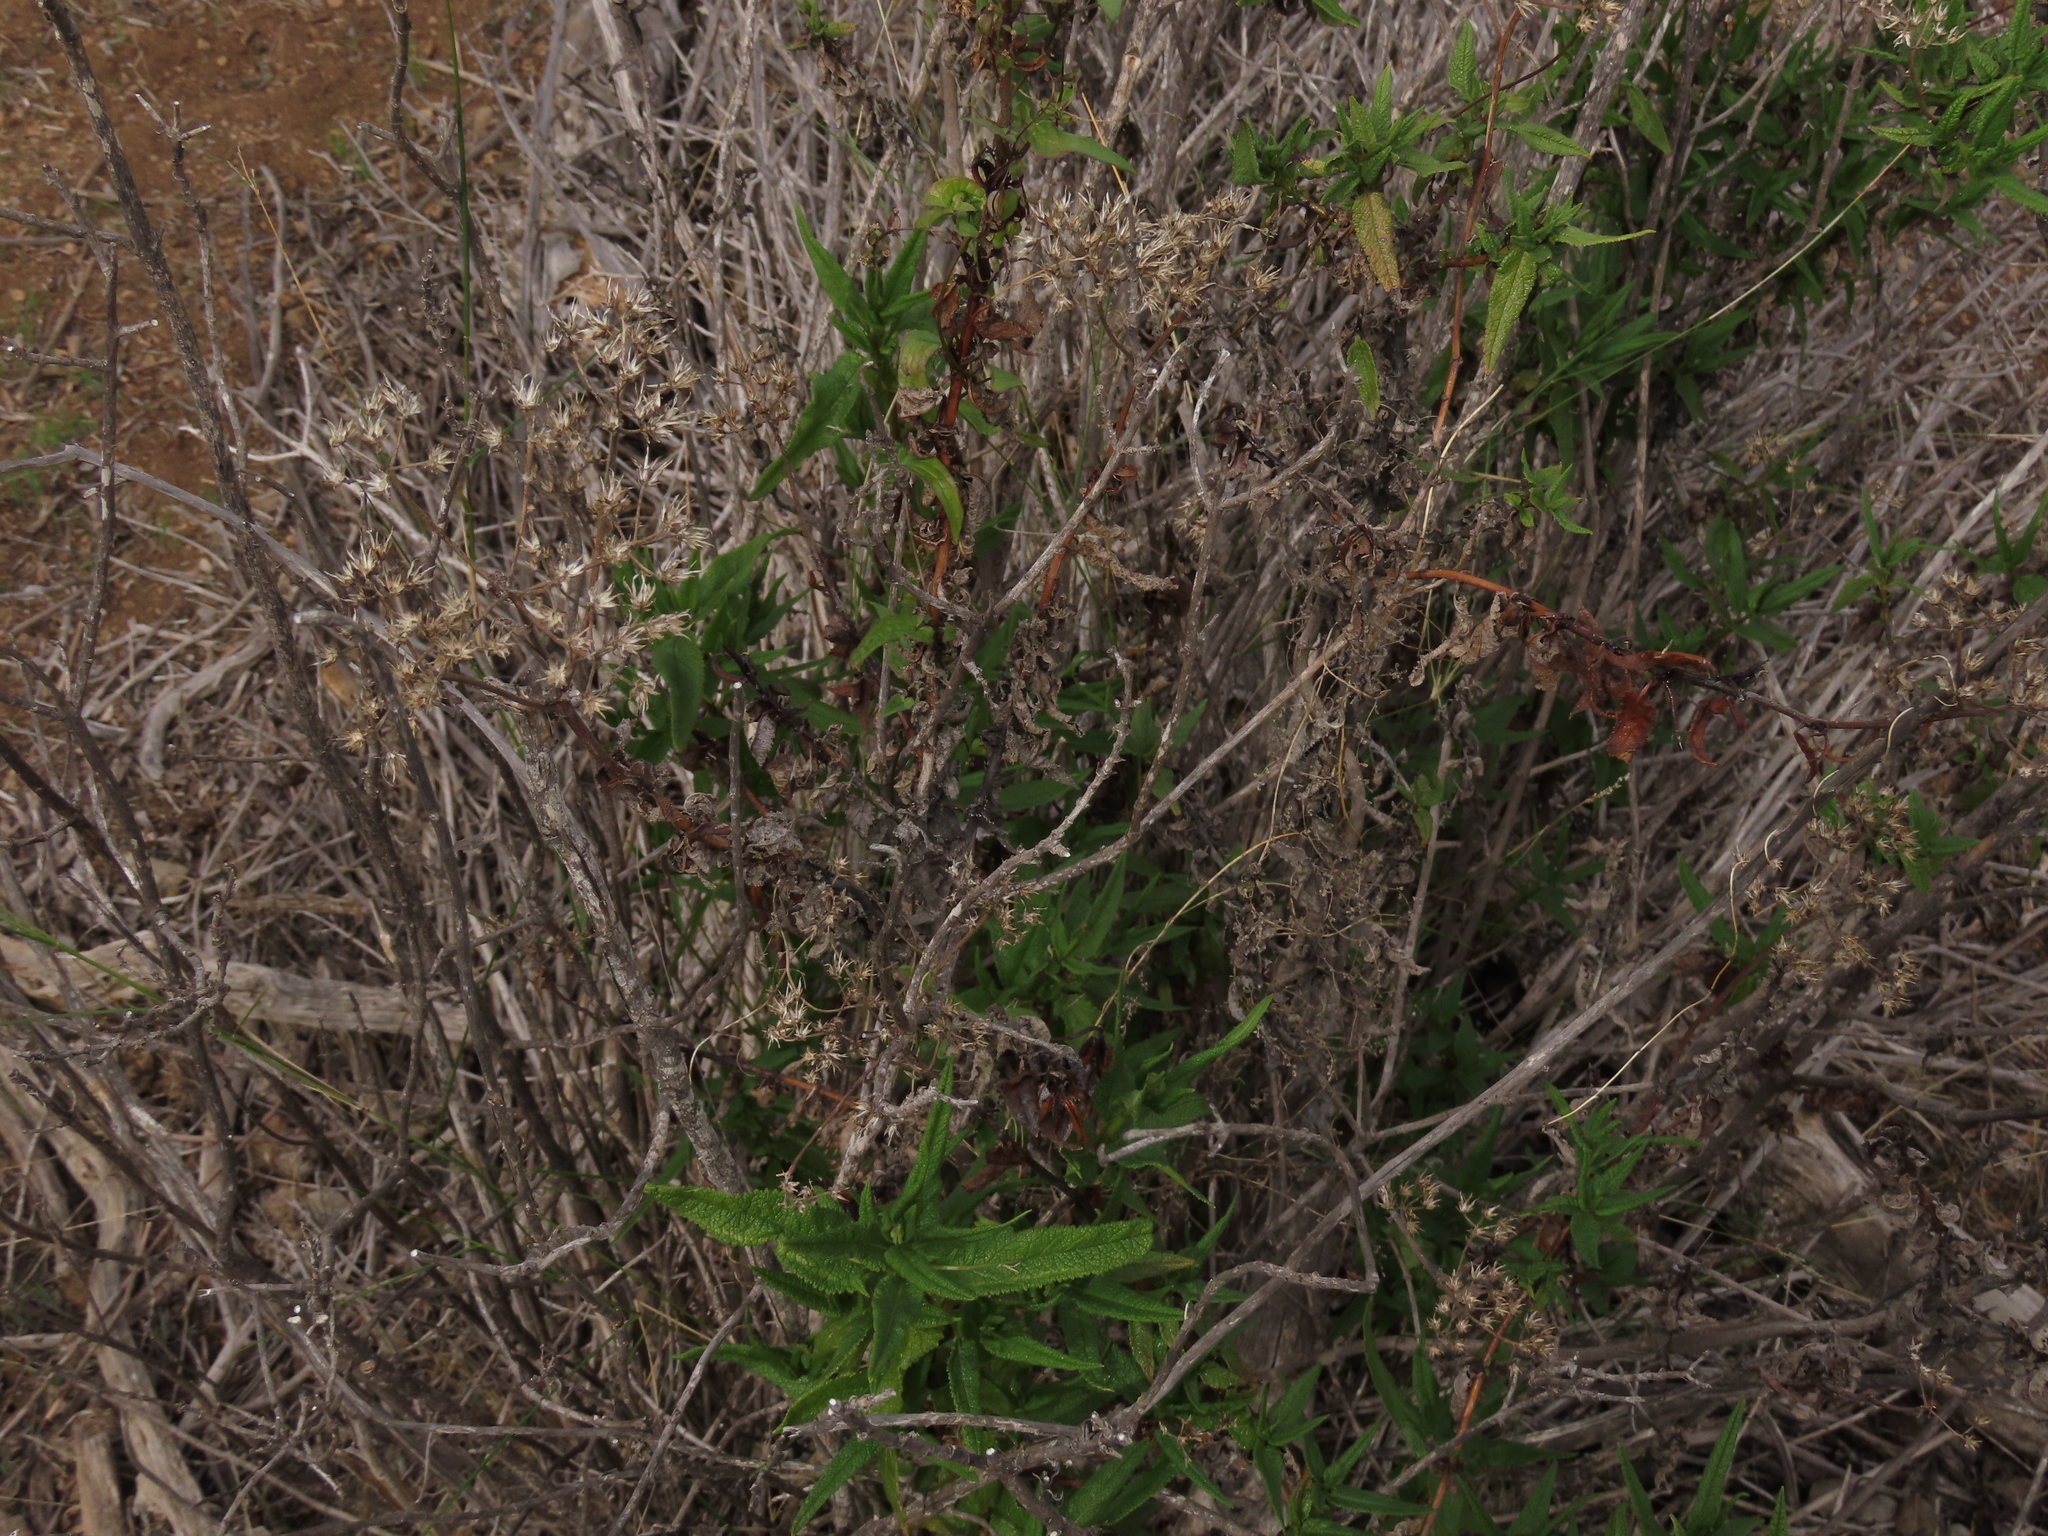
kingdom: Plantae
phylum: Tracheophyta
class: Magnoliopsida
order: Asterales
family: Asteraceae
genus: Aristeguietia
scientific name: Aristeguietia salvia
